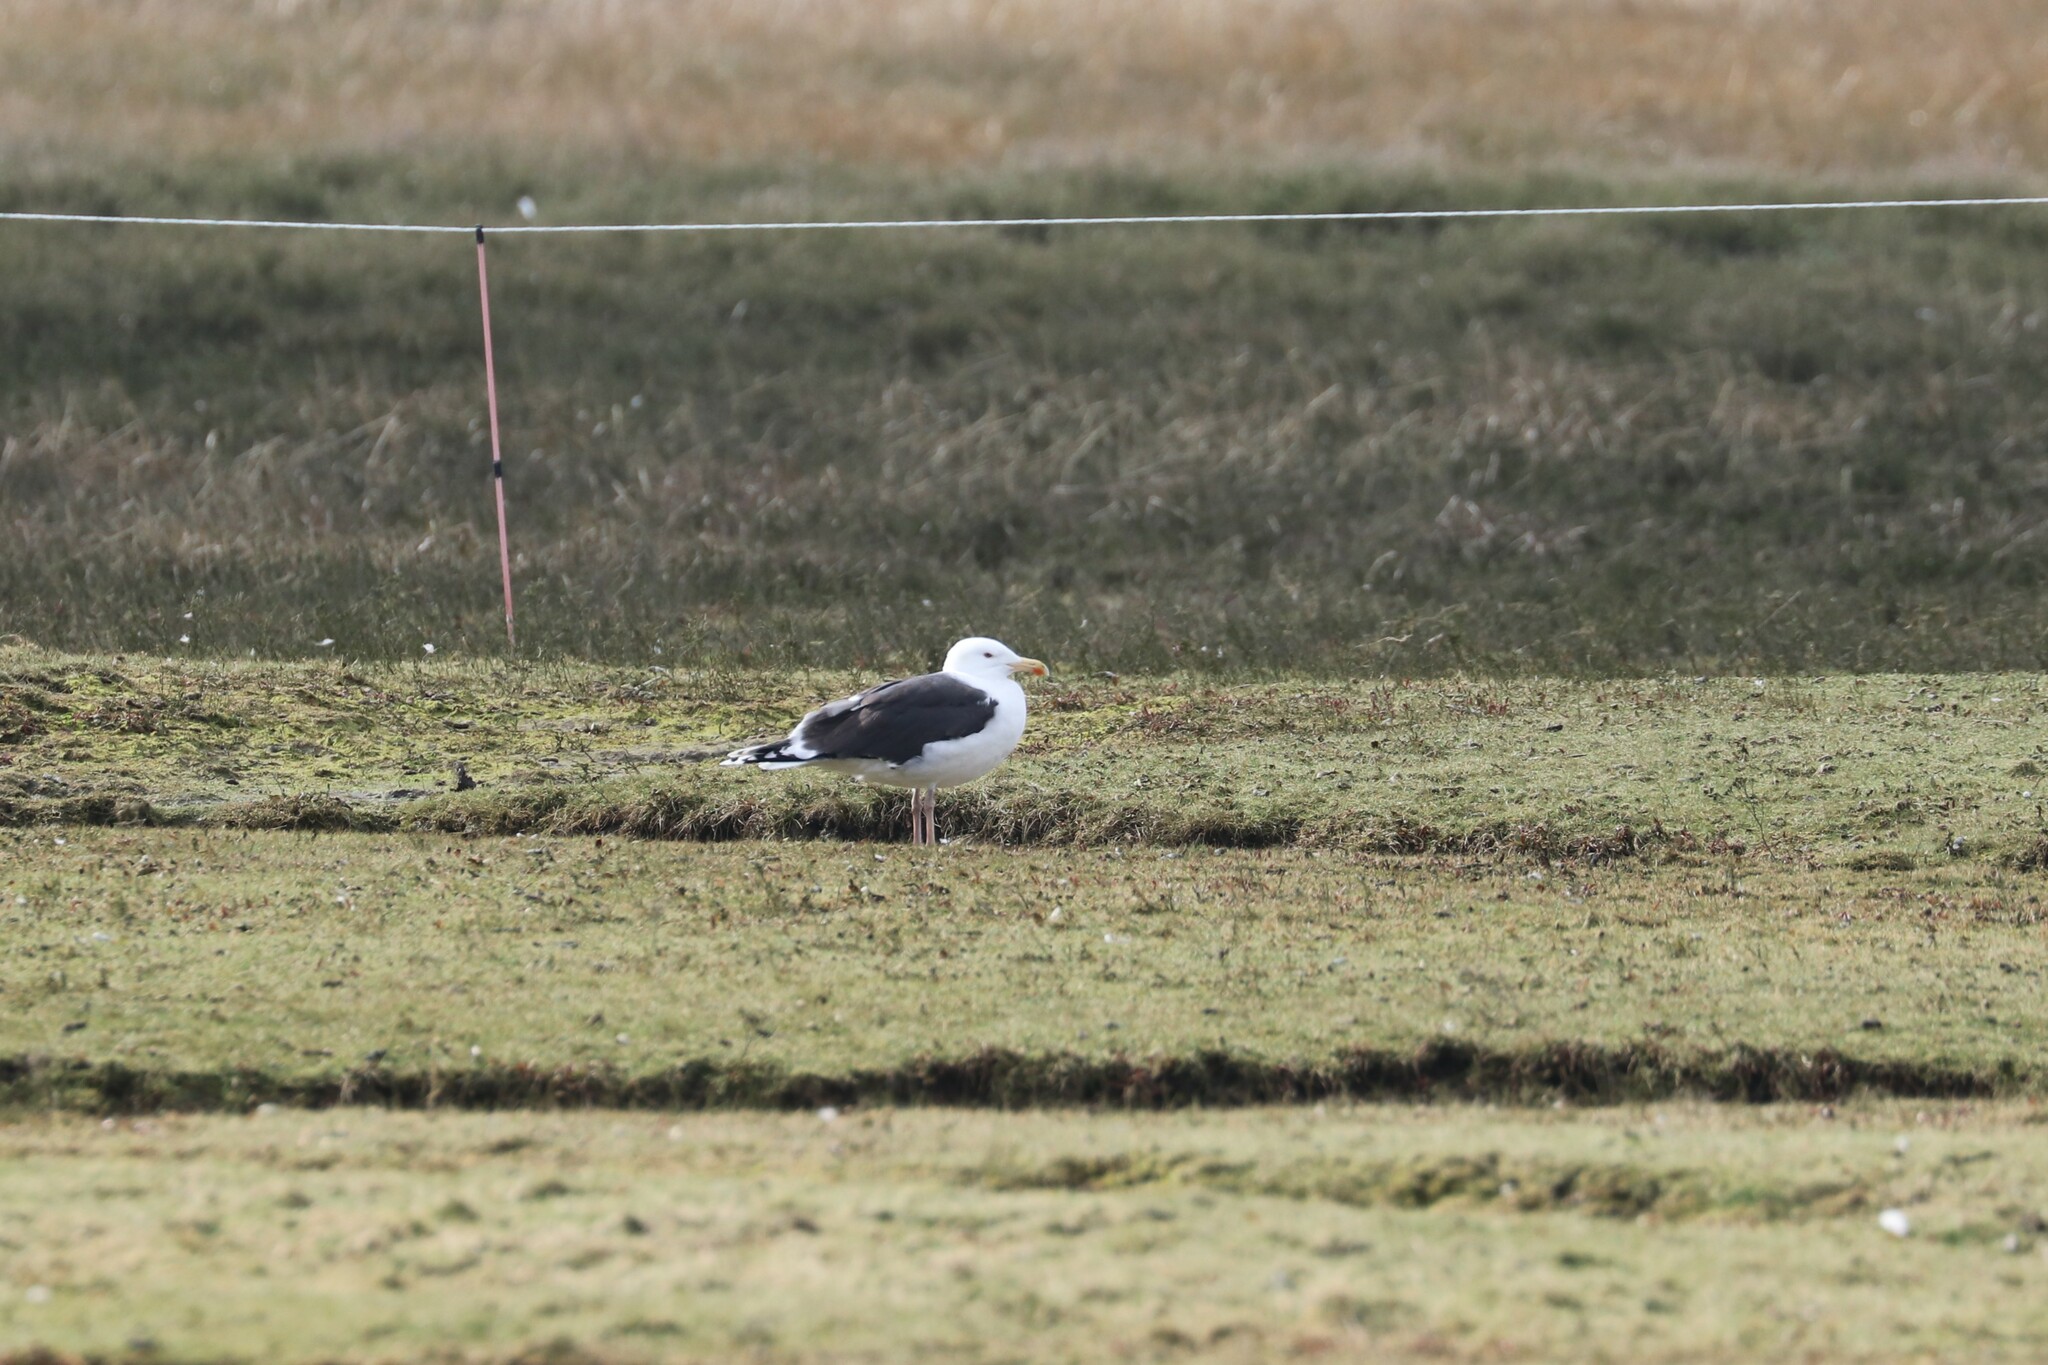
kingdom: Animalia
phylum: Chordata
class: Aves
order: Charadriiformes
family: Laridae
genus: Larus
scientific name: Larus marinus
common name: Great black-backed gull
